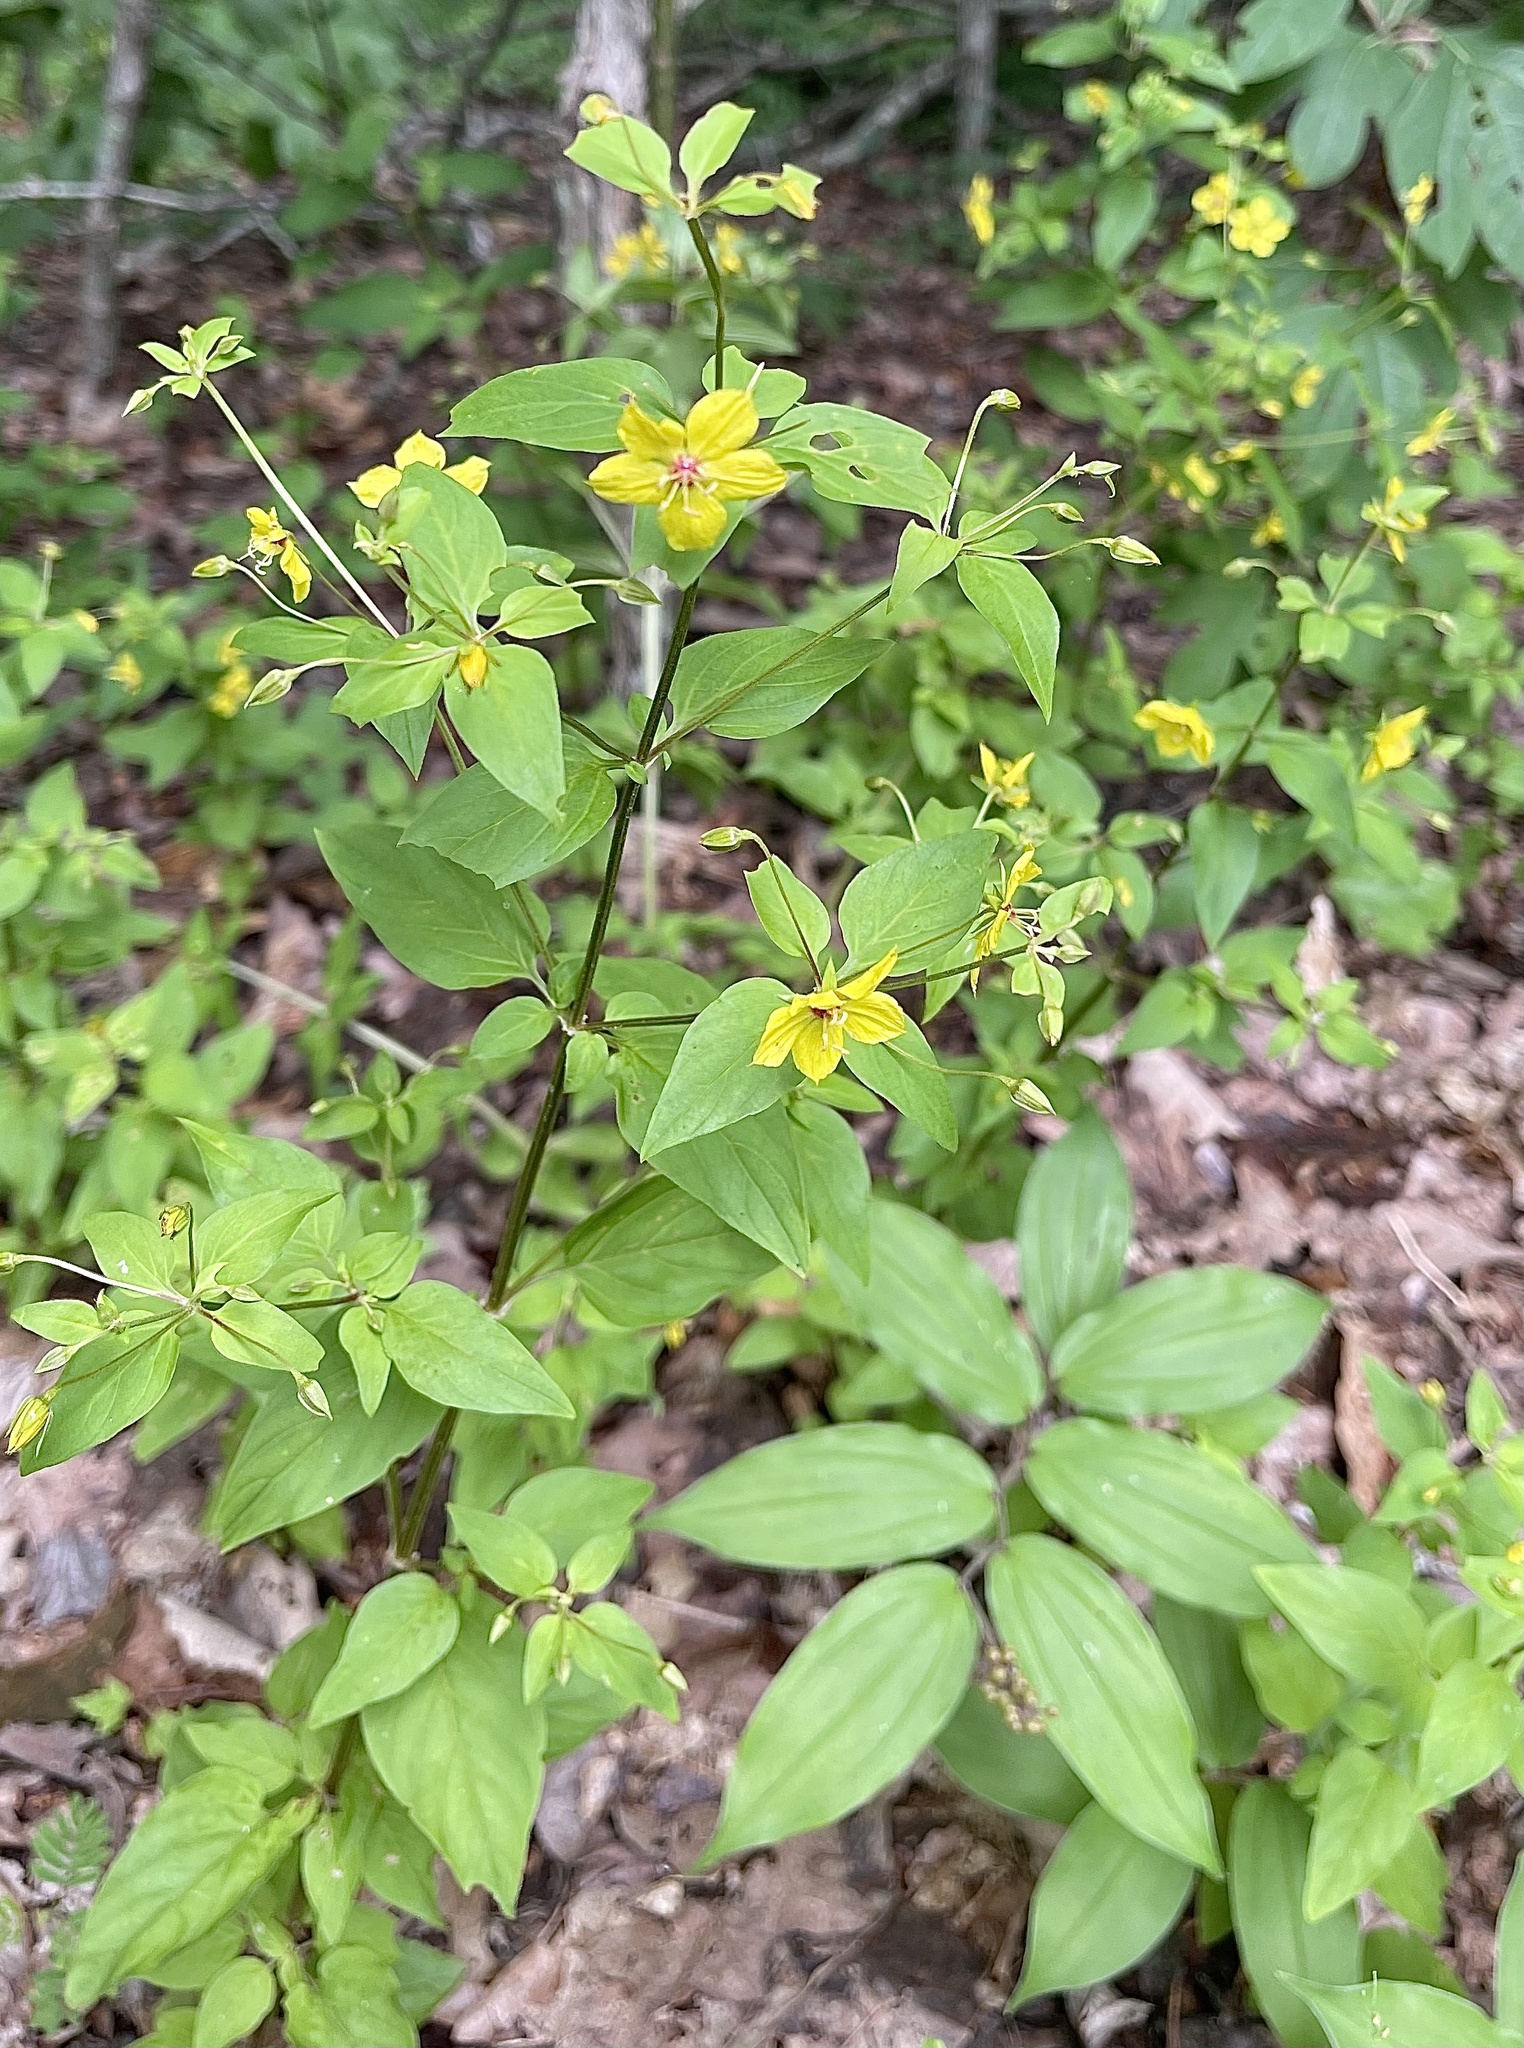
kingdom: Plantae
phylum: Tracheophyta
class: Magnoliopsida
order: Ericales
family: Primulaceae
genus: Lysimachia
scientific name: Lysimachia tonsa
